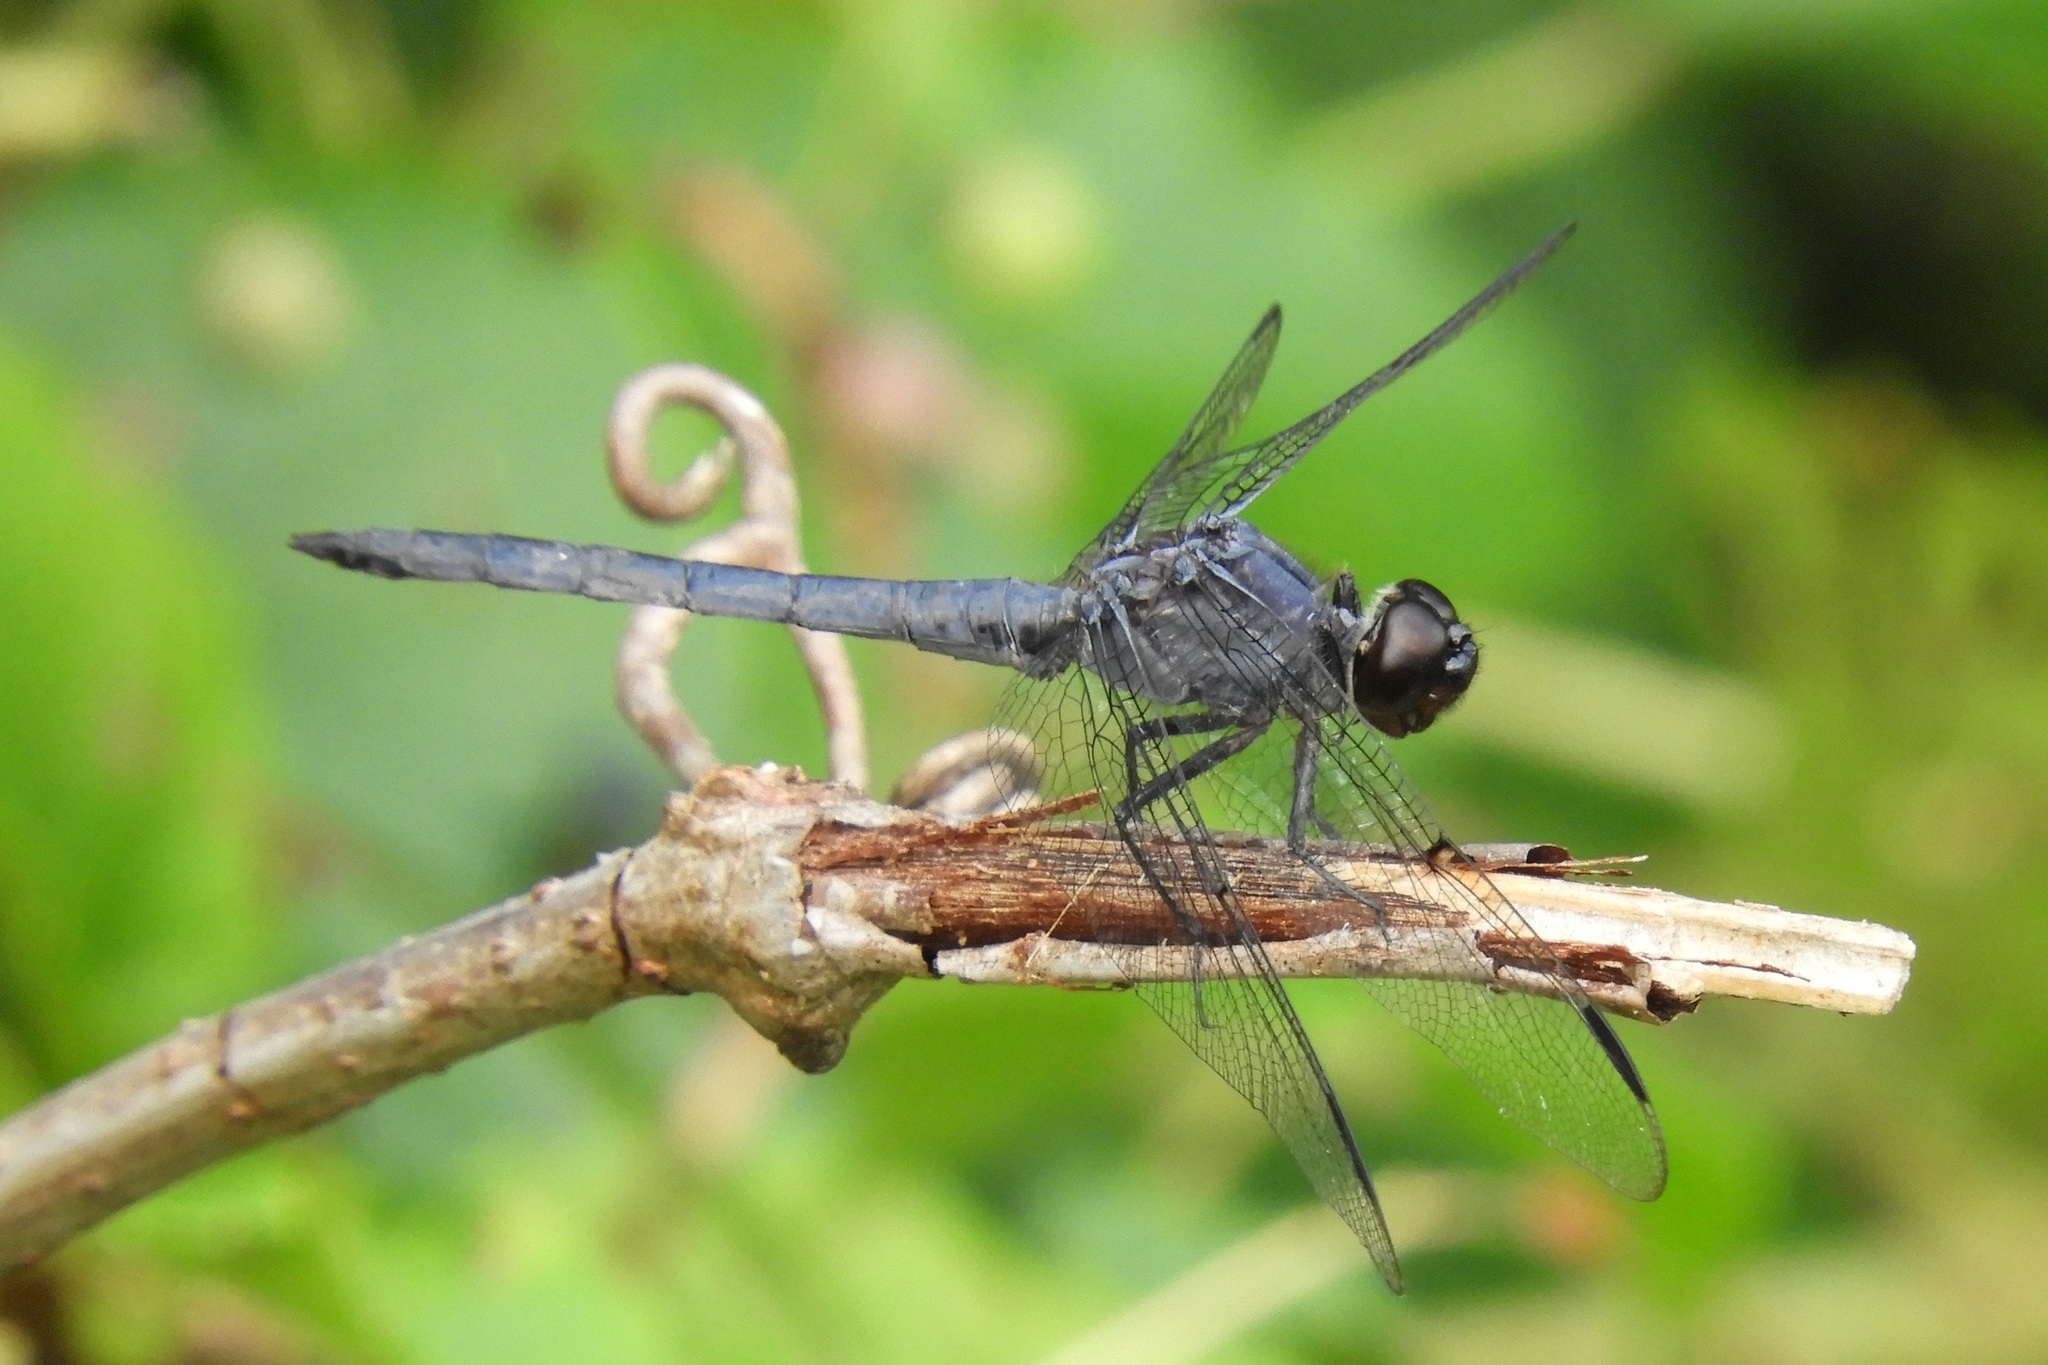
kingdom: Animalia
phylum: Arthropoda
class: Insecta
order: Odonata
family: Libellulidae
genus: Libellula
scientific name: Libellula incesta
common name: Slaty skimmer
